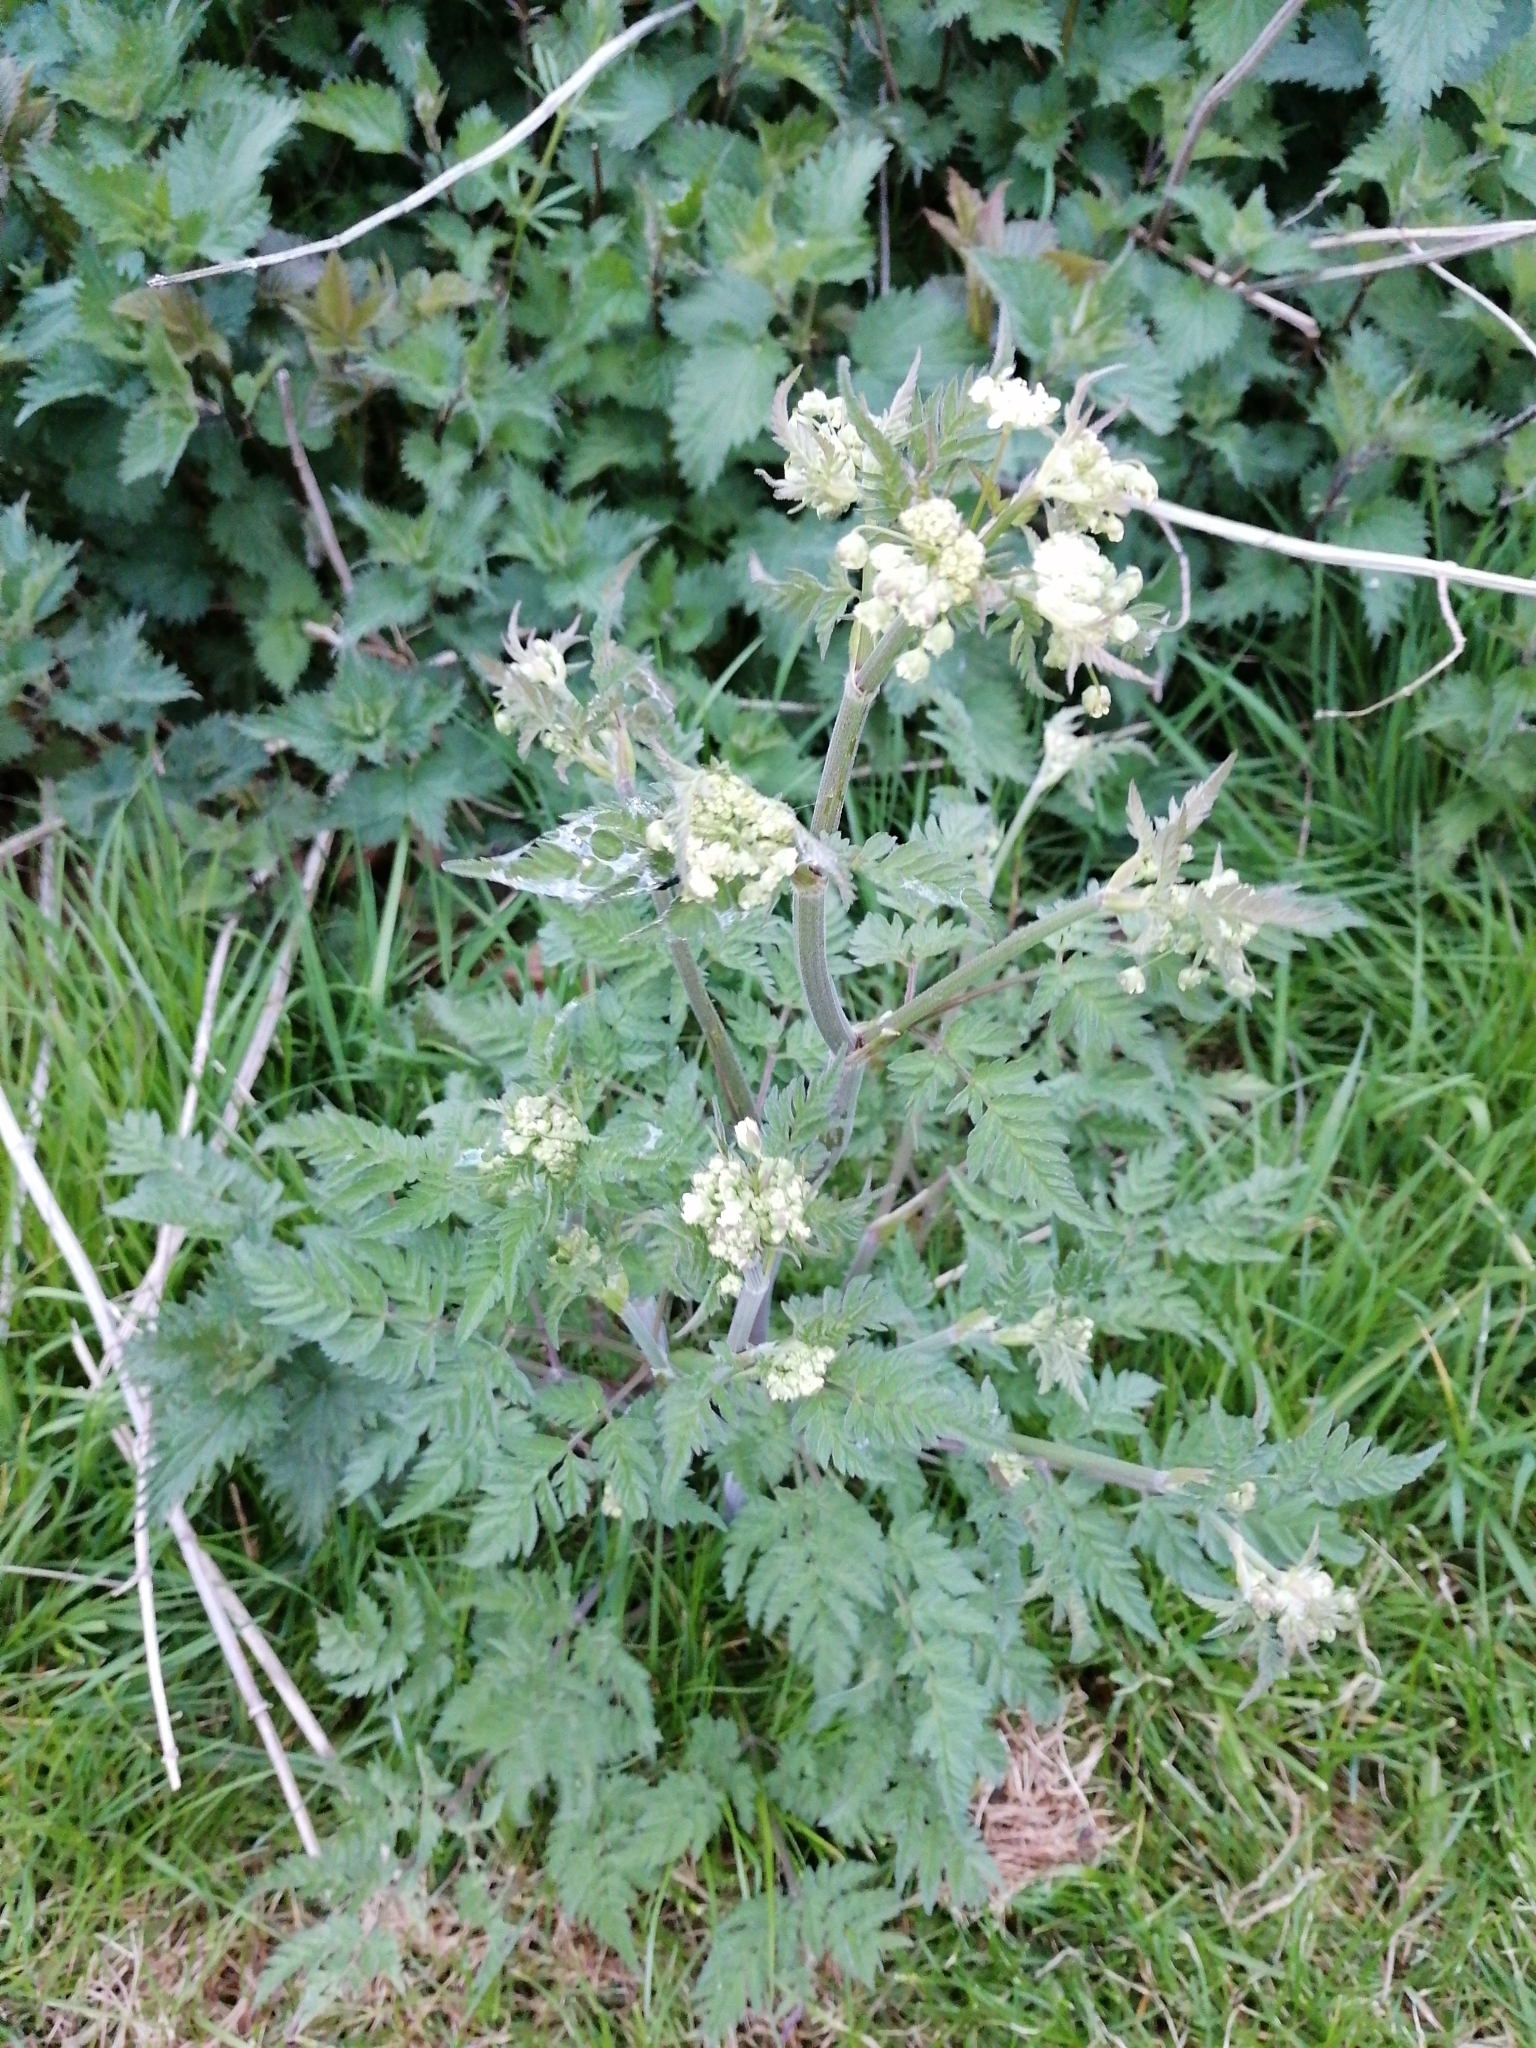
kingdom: Plantae
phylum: Tracheophyta
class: Magnoliopsida
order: Apiales
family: Apiaceae
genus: Anthriscus
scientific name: Anthriscus sylvestris
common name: Cow parsley
